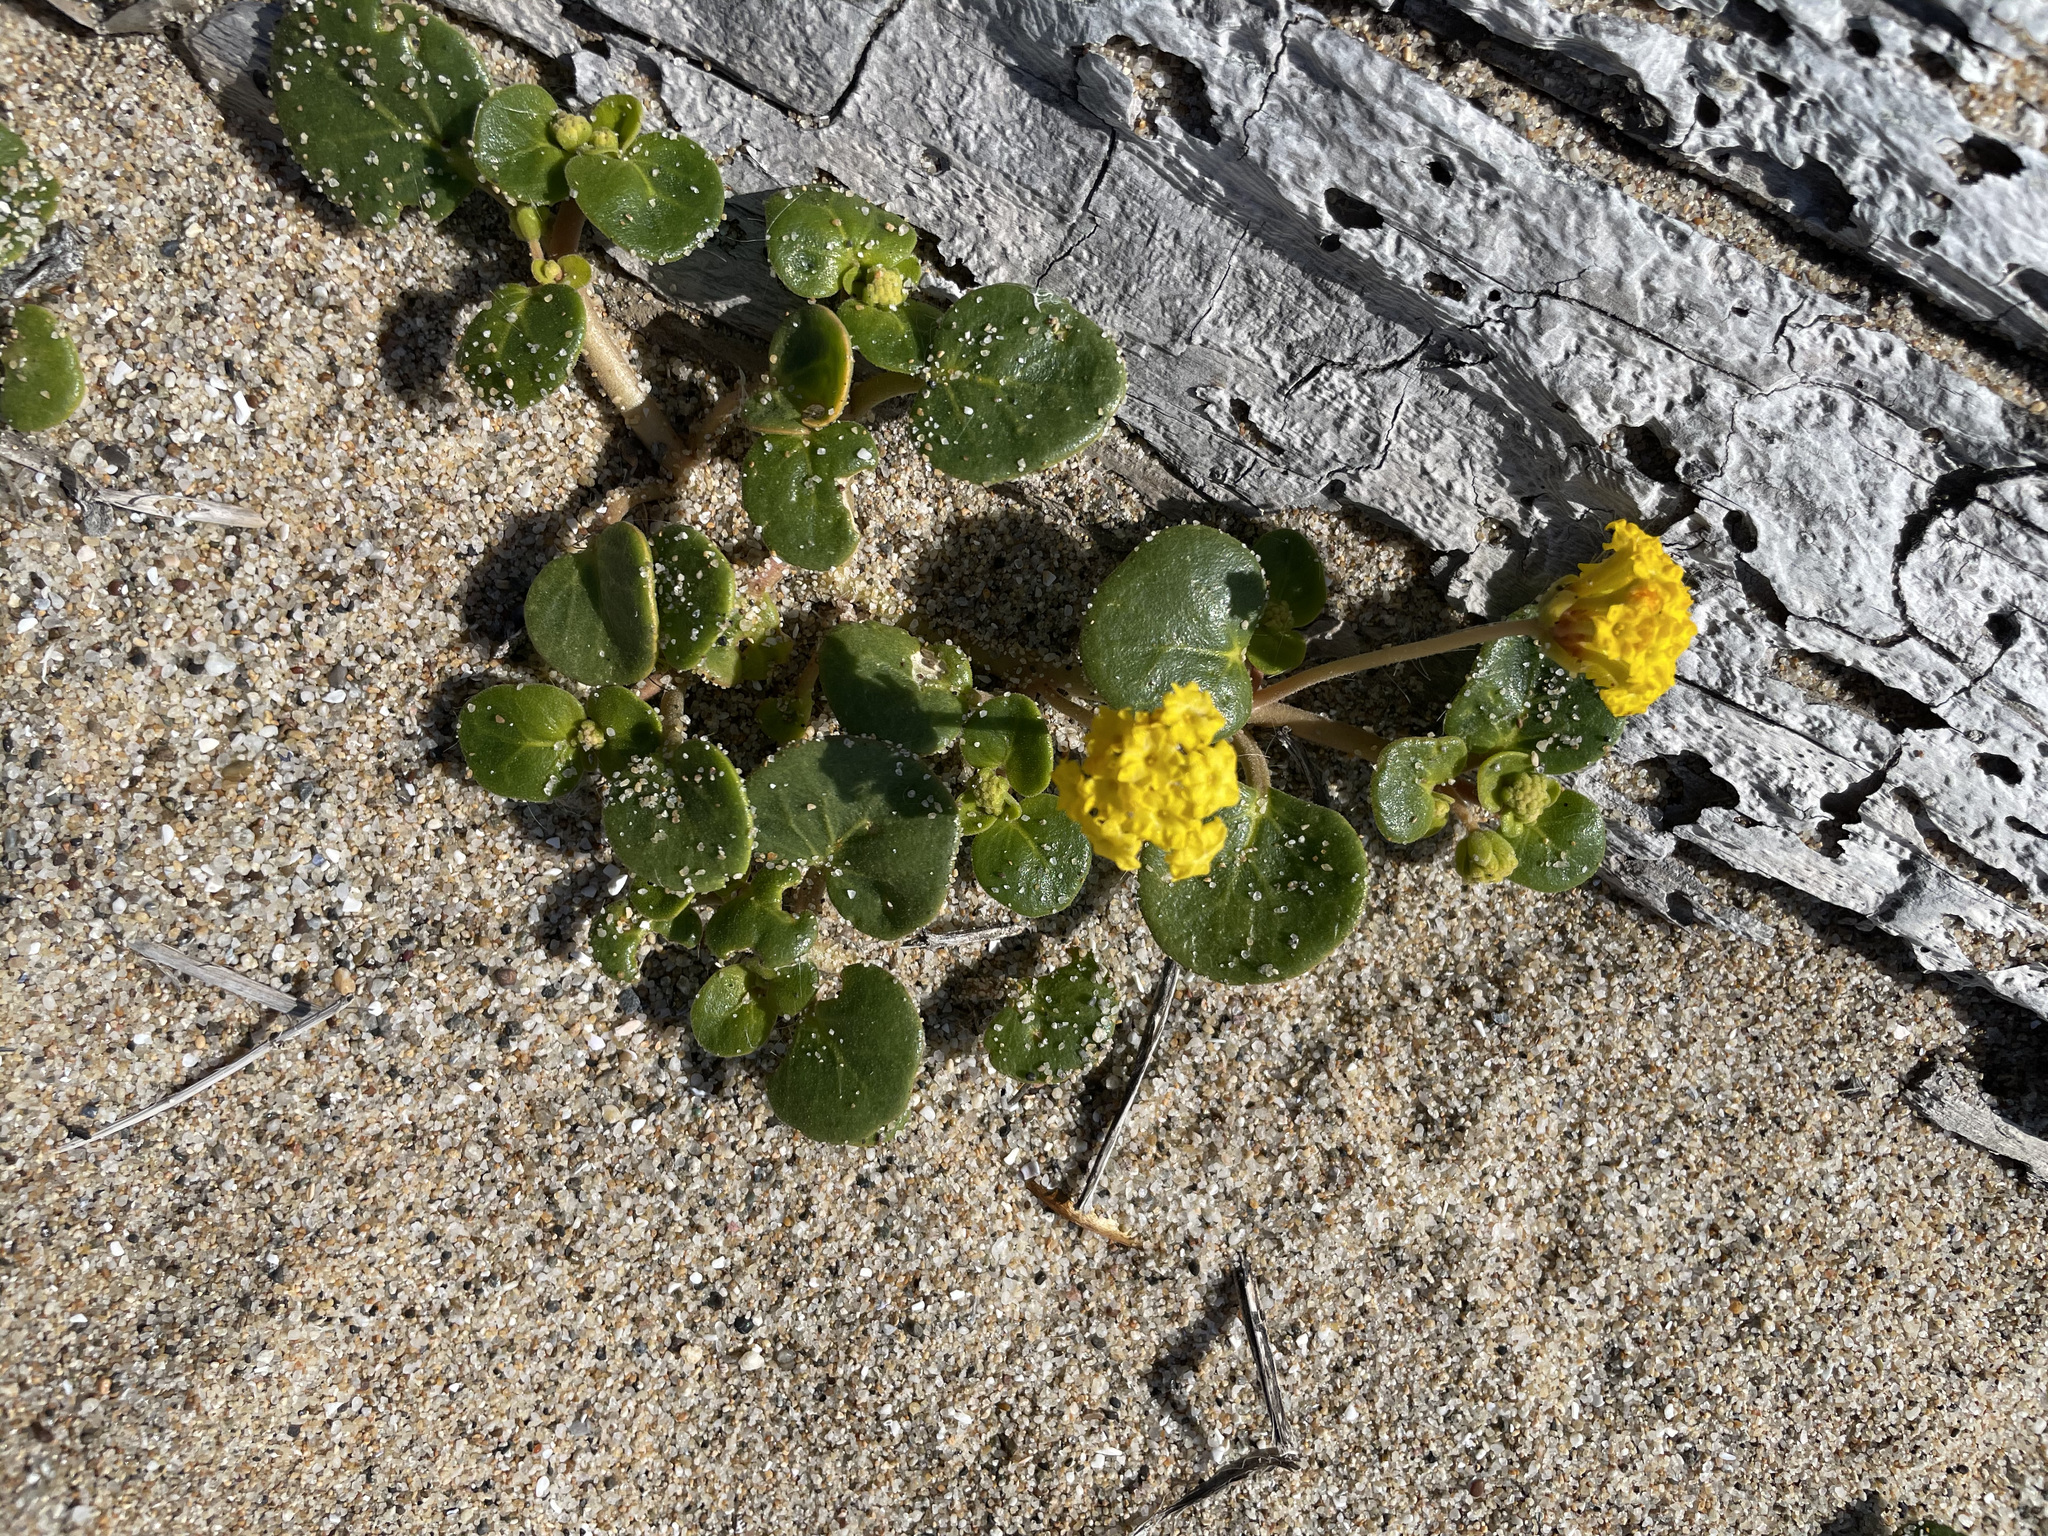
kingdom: Plantae
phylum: Tracheophyta
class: Magnoliopsida
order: Caryophyllales
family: Nyctaginaceae
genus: Abronia
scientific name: Abronia latifolia
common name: Yellow sand-verbena
